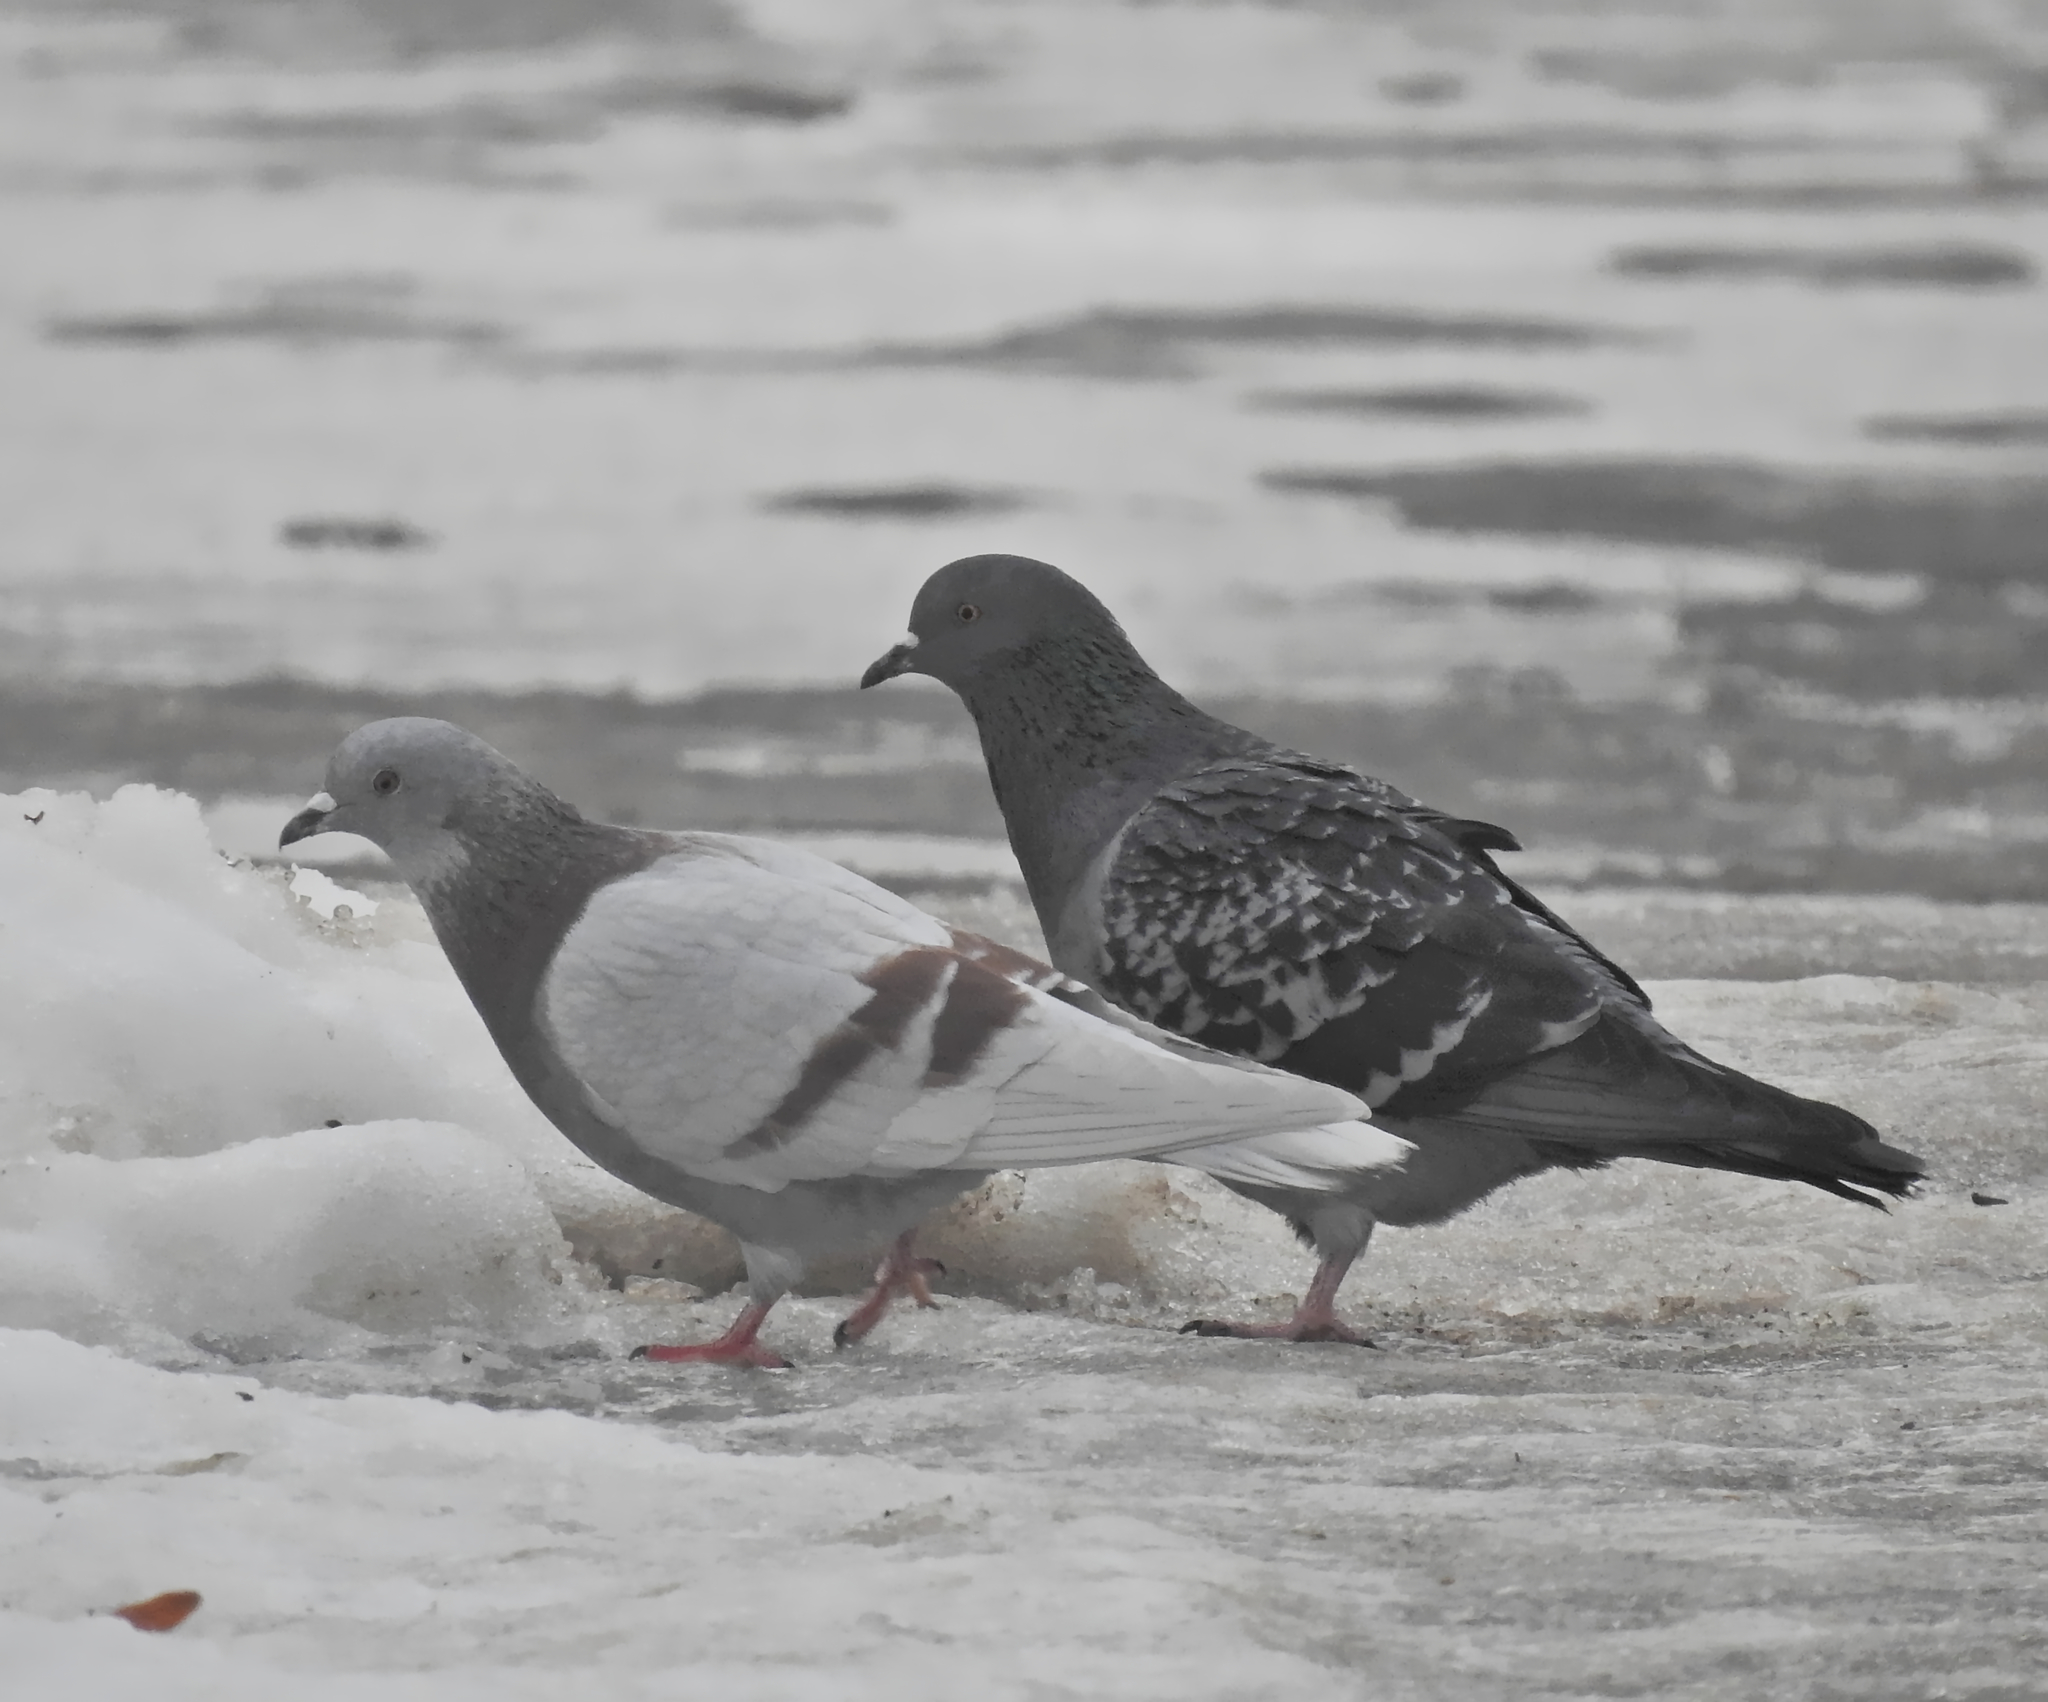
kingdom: Animalia
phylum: Chordata
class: Aves
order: Columbiformes
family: Columbidae
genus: Columba
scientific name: Columba livia
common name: Rock pigeon
